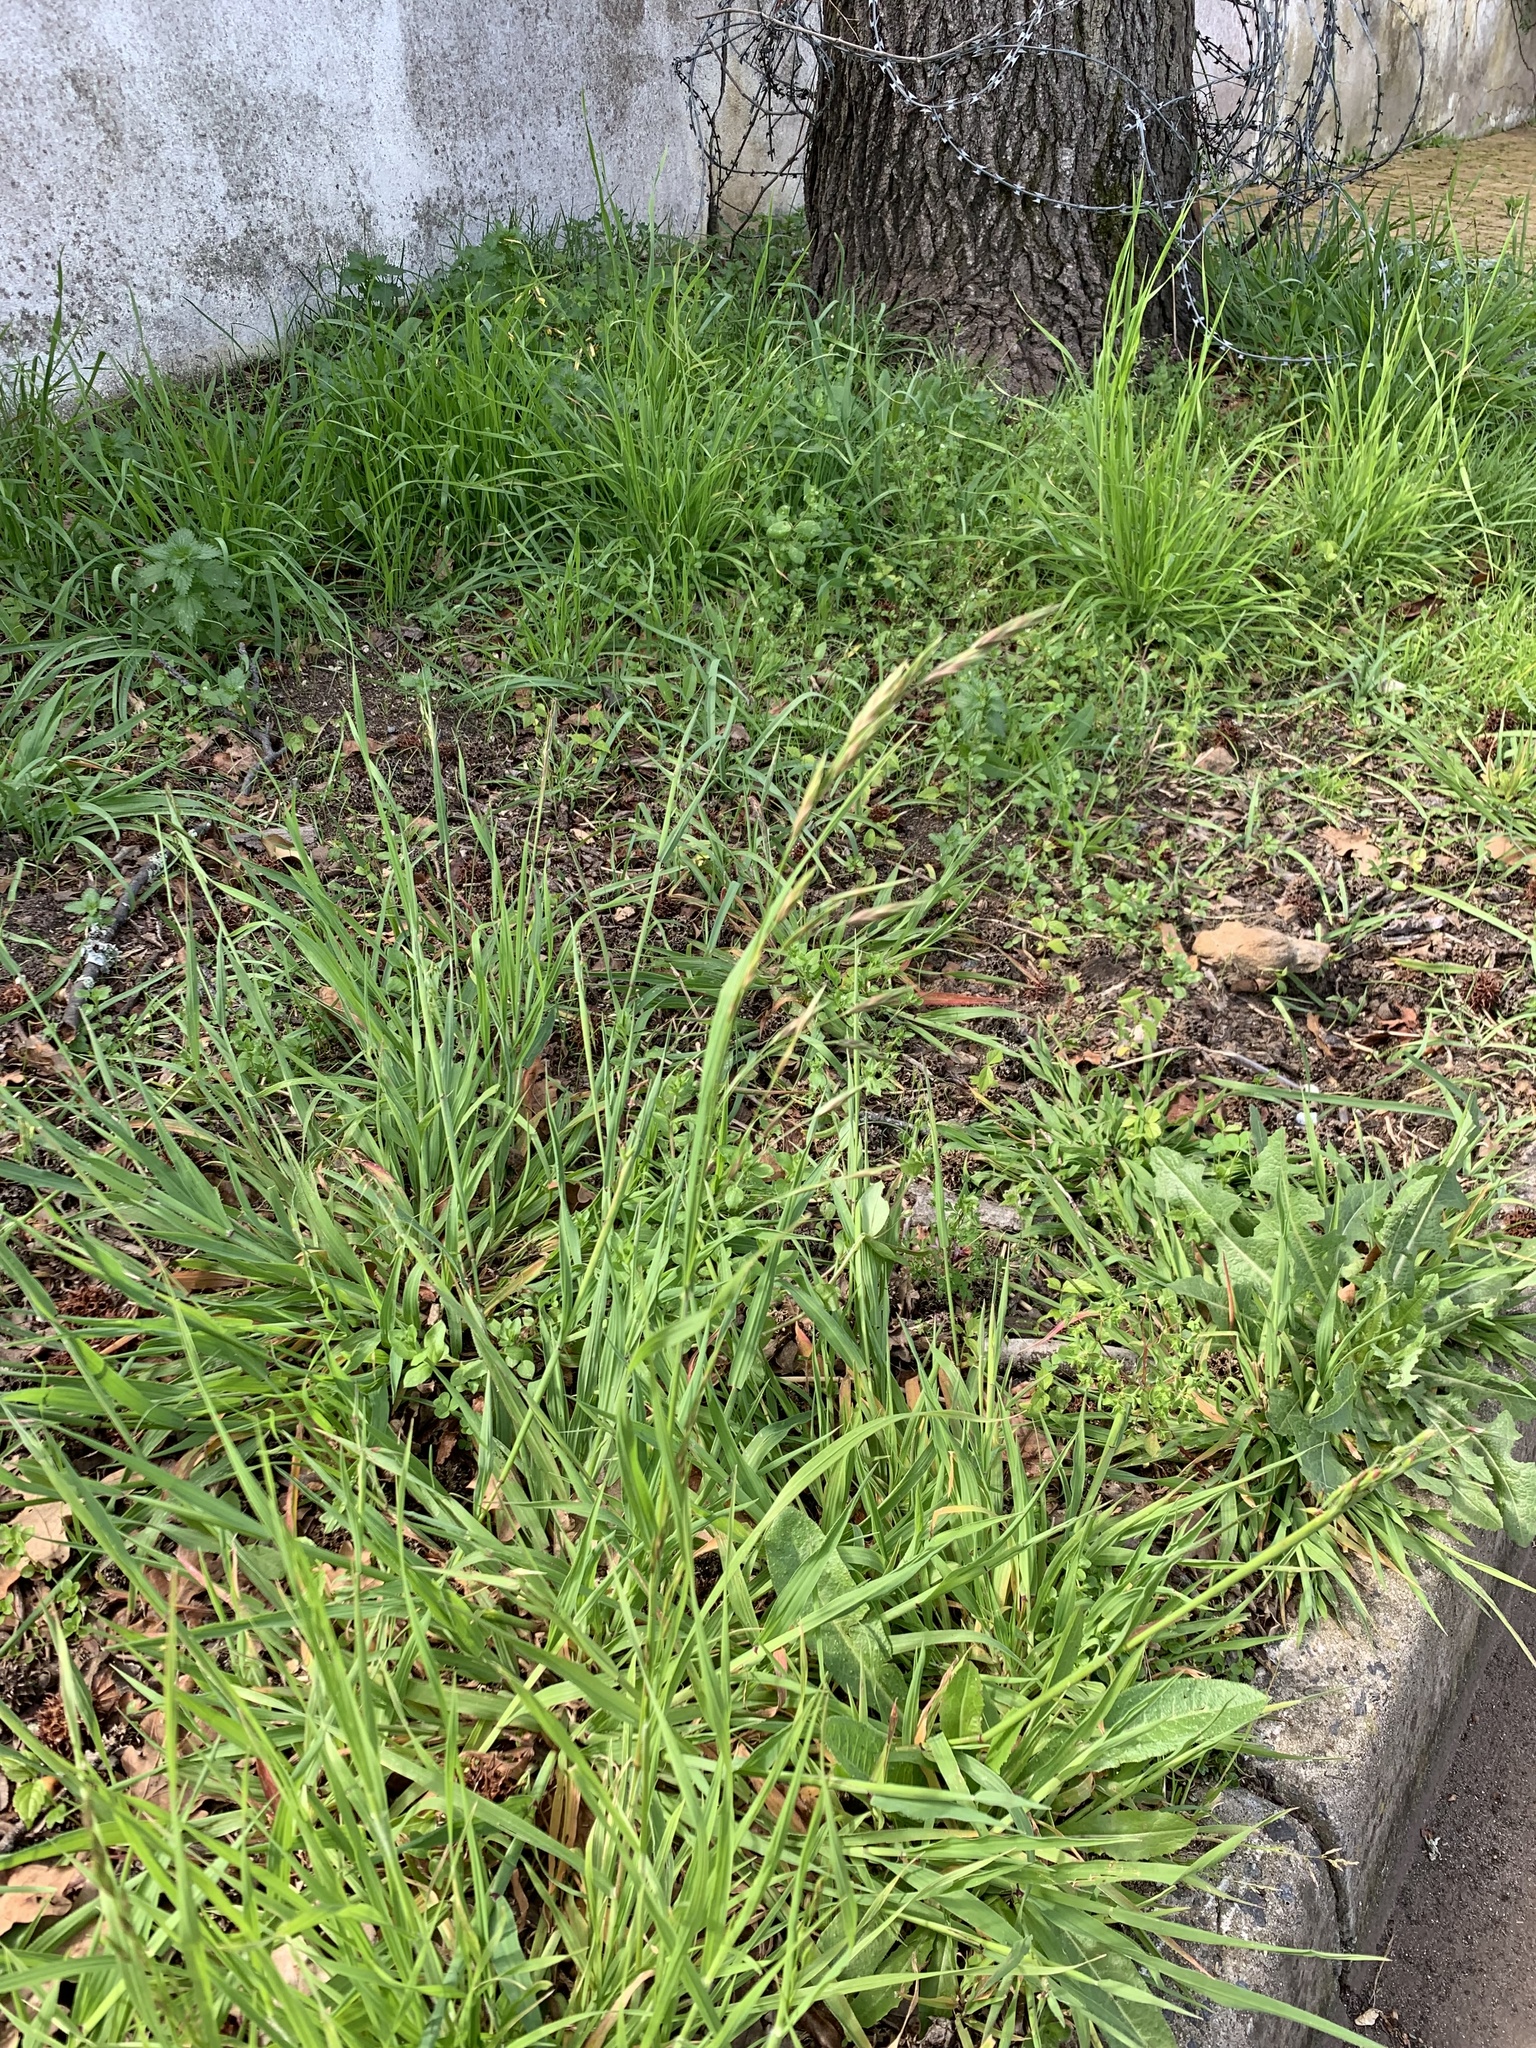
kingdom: Plantae
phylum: Tracheophyta
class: Liliopsida
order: Poales
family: Poaceae
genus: Bromus
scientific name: Bromus catharticus
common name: Rescuegrass
